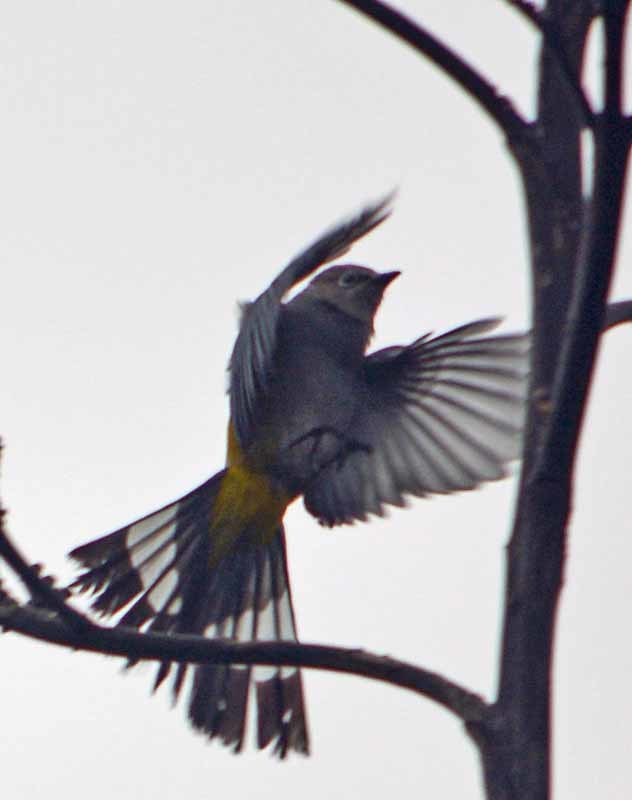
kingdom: Animalia
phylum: Chordata
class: Aves
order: Passeriformes
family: Ptilogonatidae
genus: Ptilogonys
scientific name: Ptilogonys cinereus
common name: Gray silky-flycatcher
